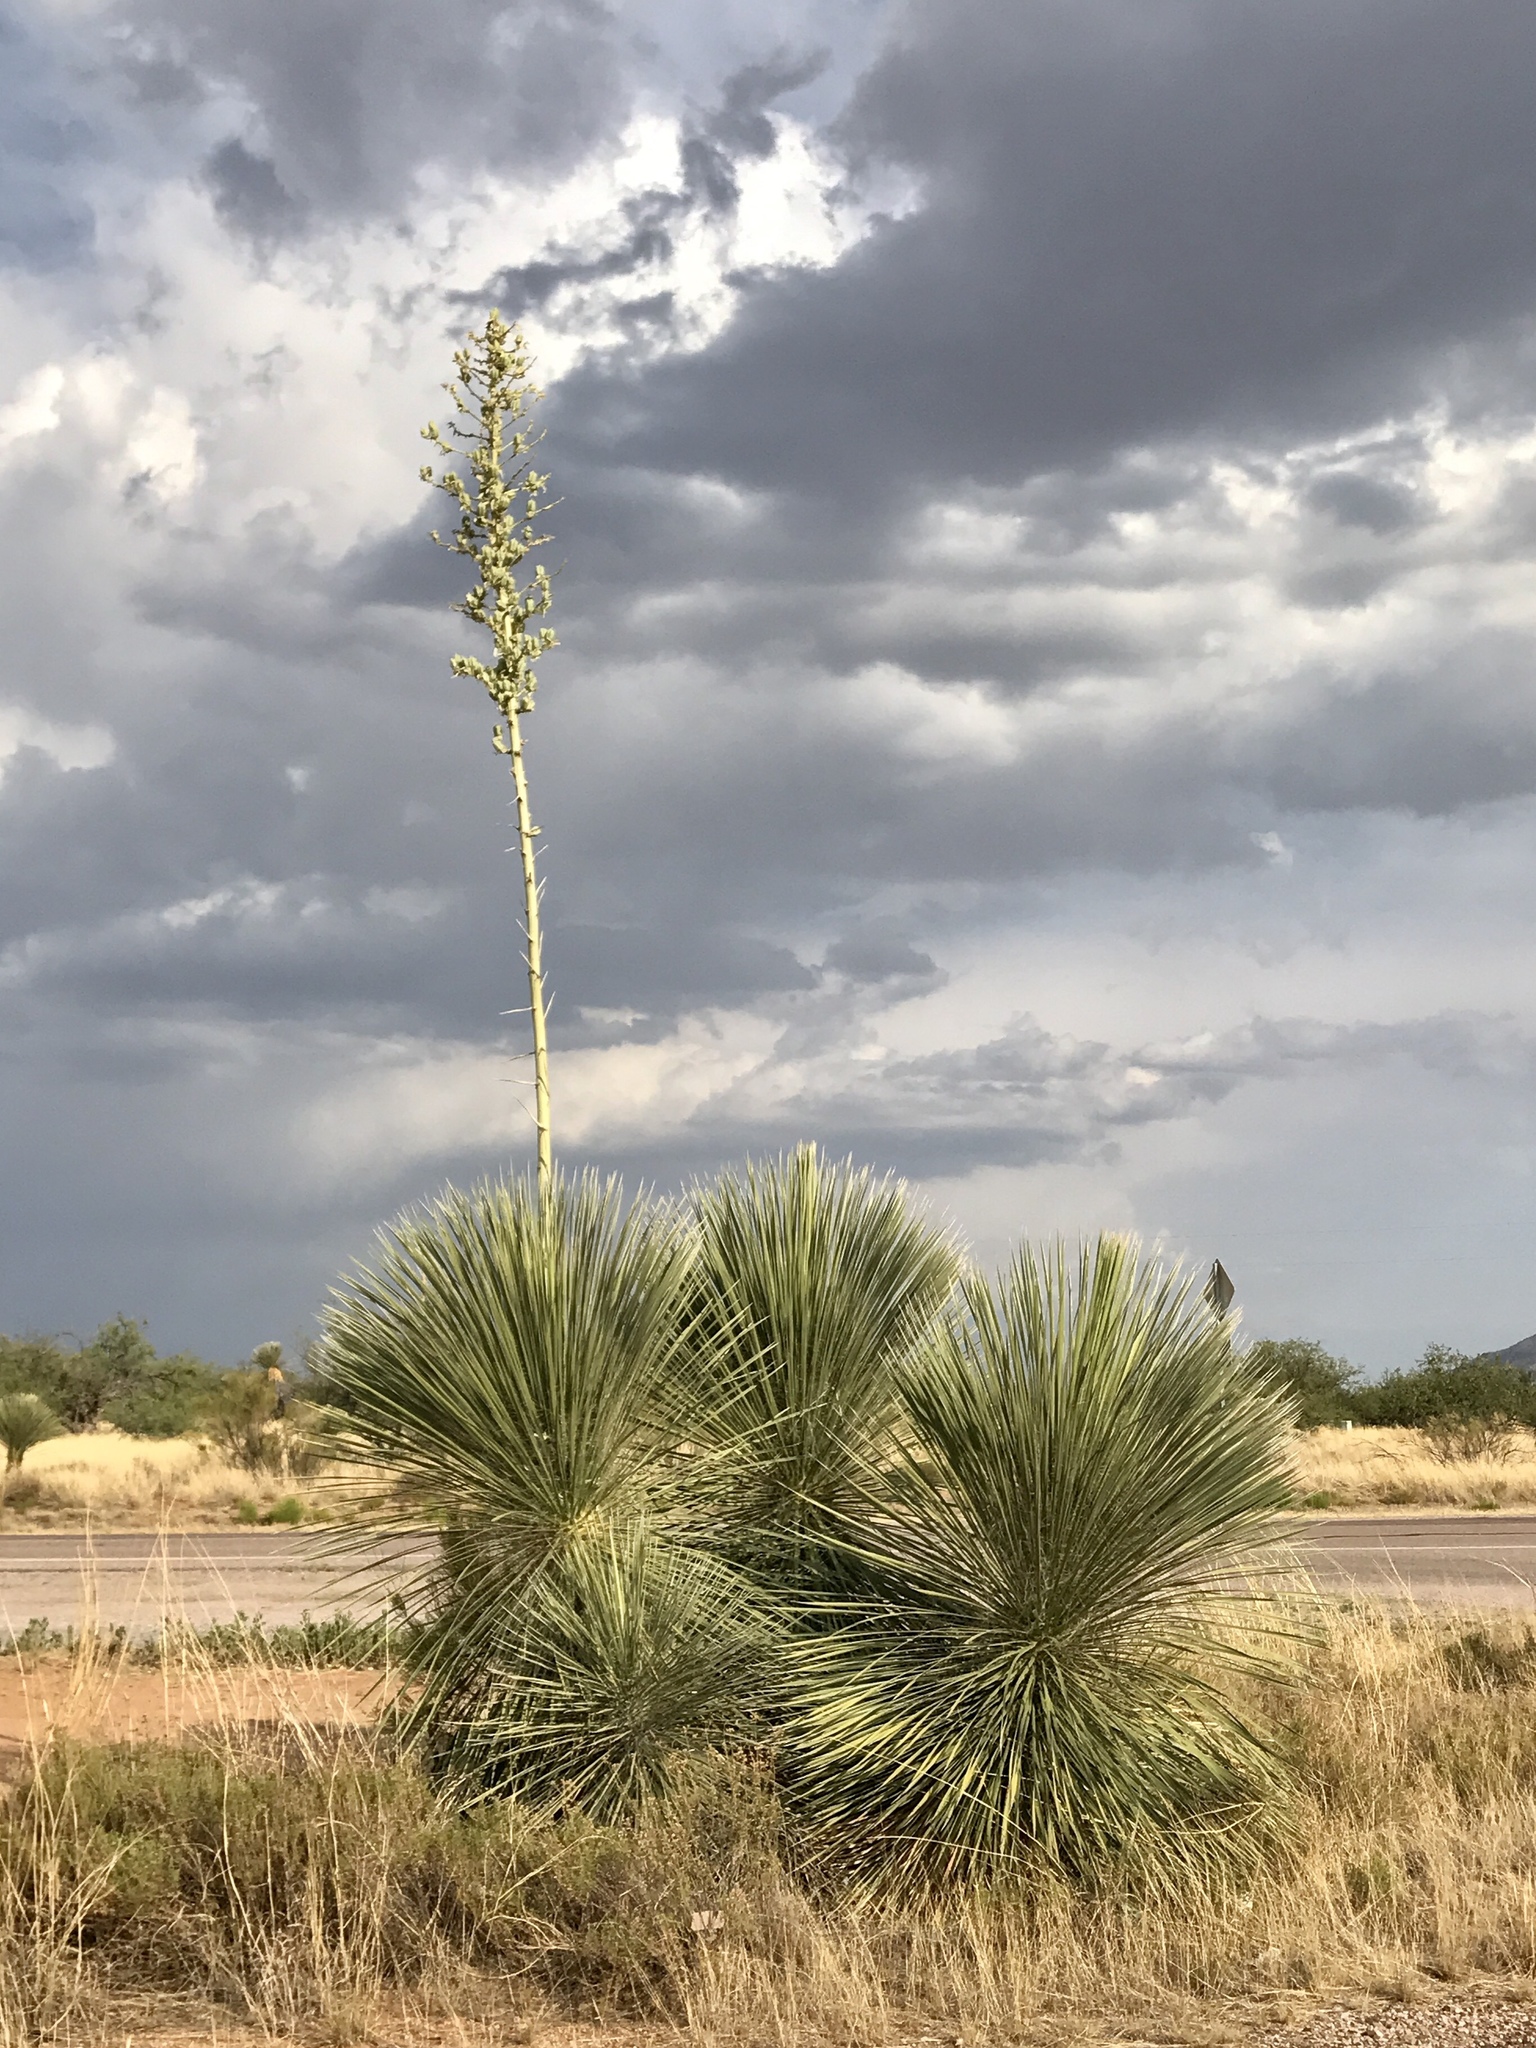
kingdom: Plantae
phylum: Tracheophyta
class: Liliopsida
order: Asparagales
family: Asparagaceae
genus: Yucca
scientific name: Yucca elata
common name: Palmella
